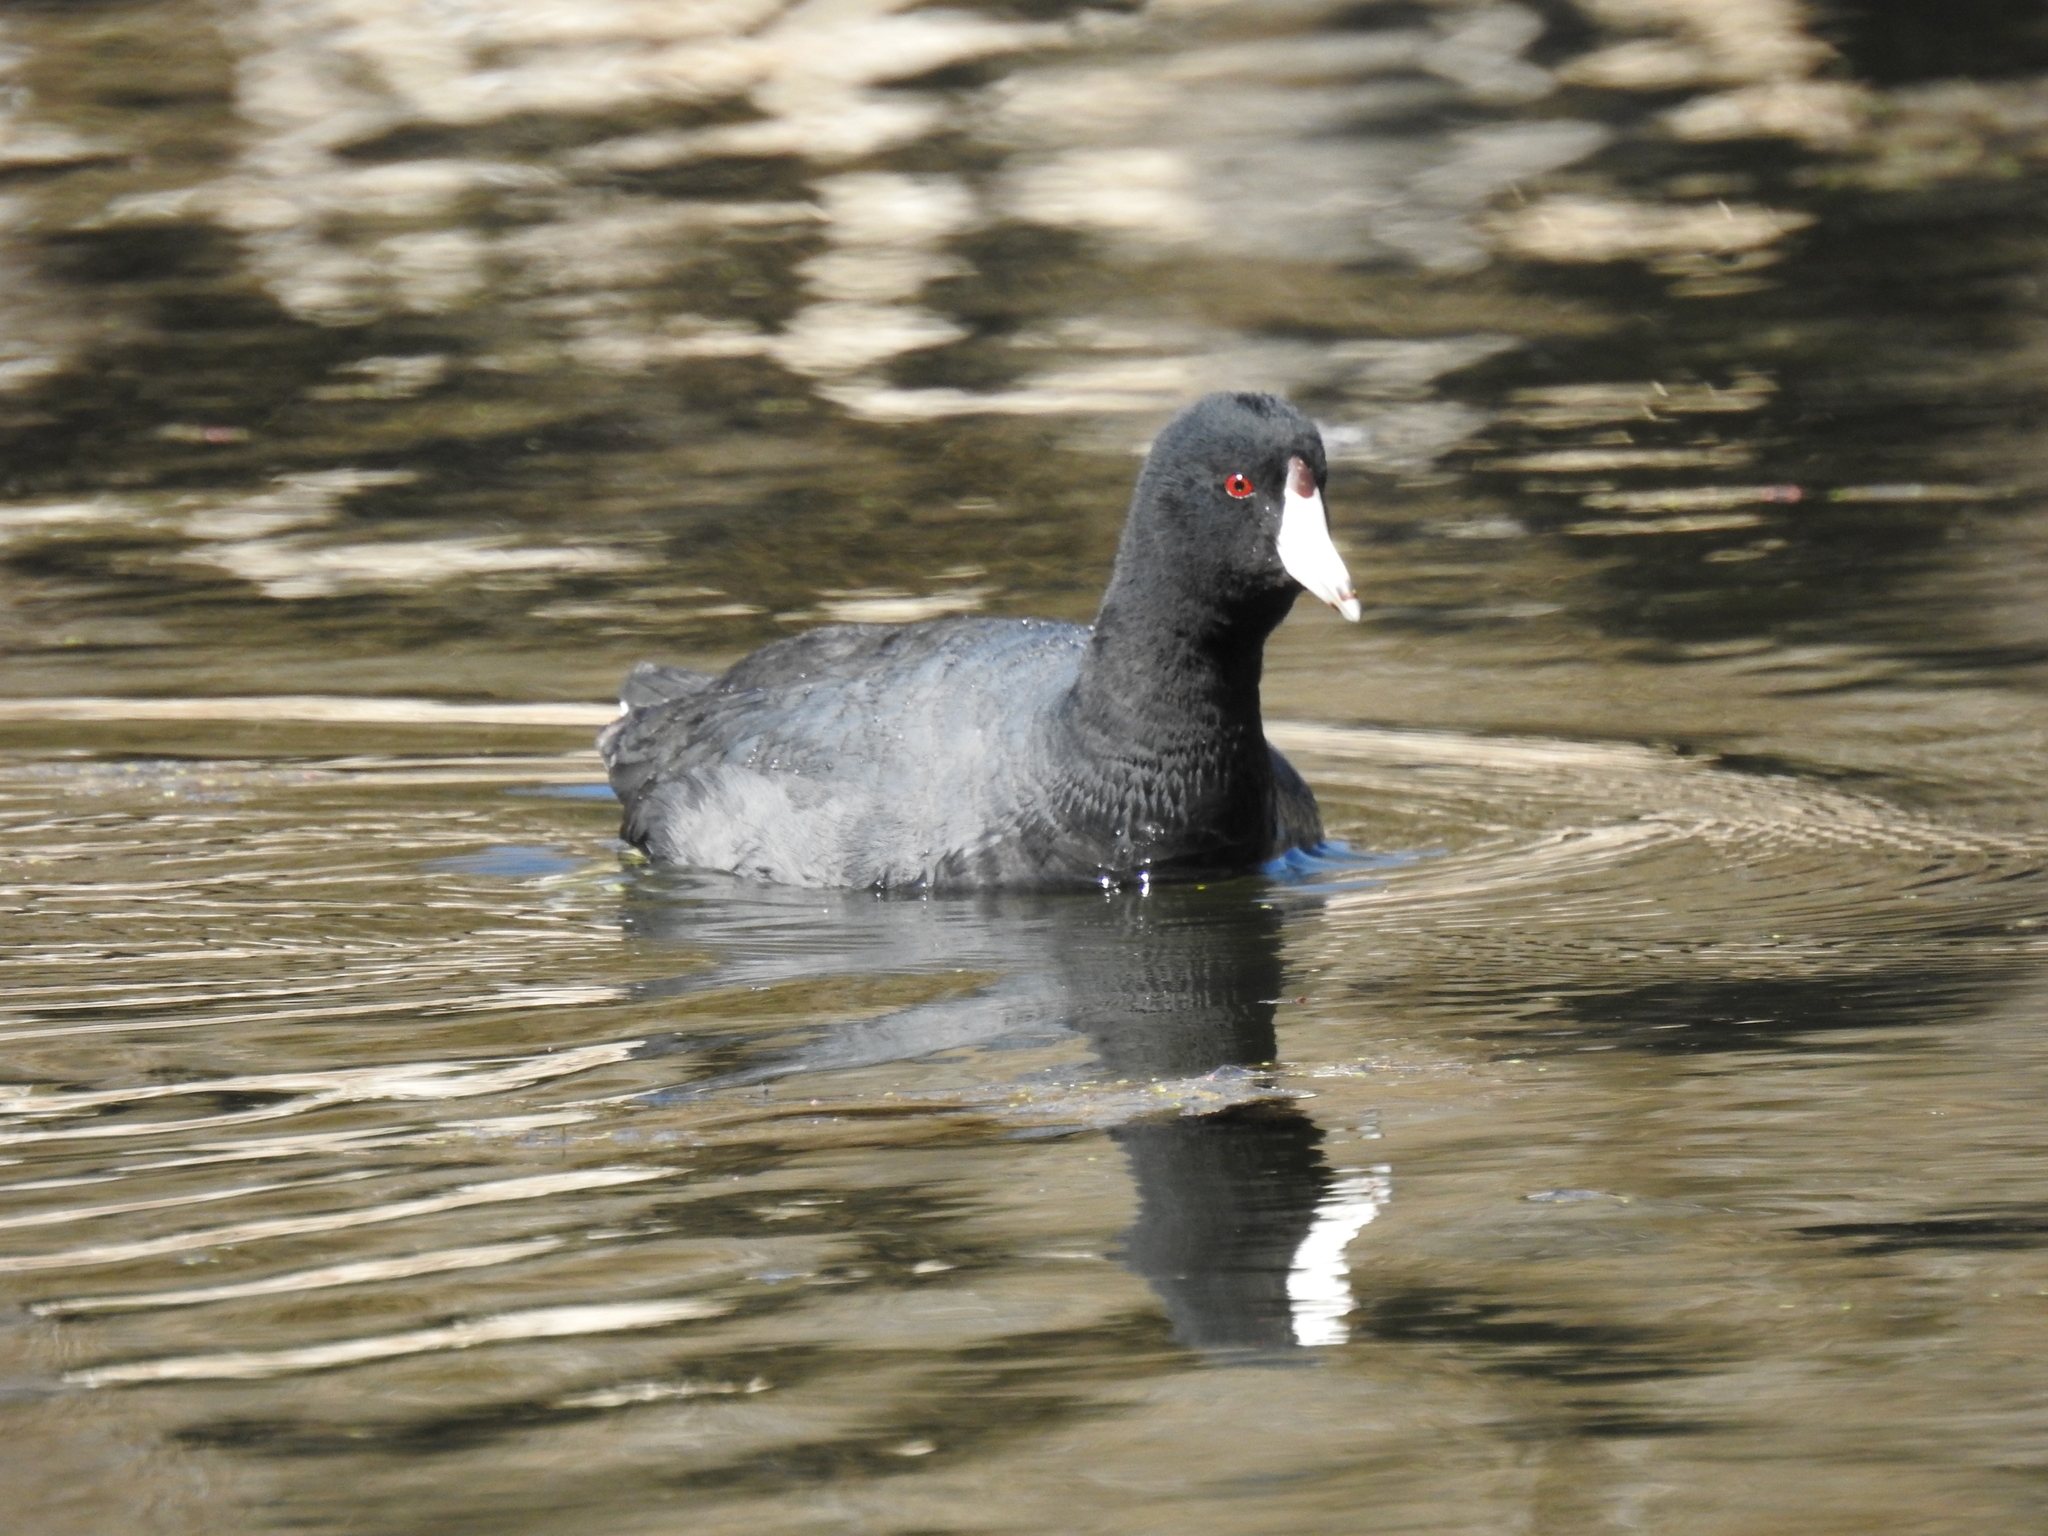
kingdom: Animalia
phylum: Chordata
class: Aves
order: Gruiformes
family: Rallidae
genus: Fulica
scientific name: Fulica americana
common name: American coot
